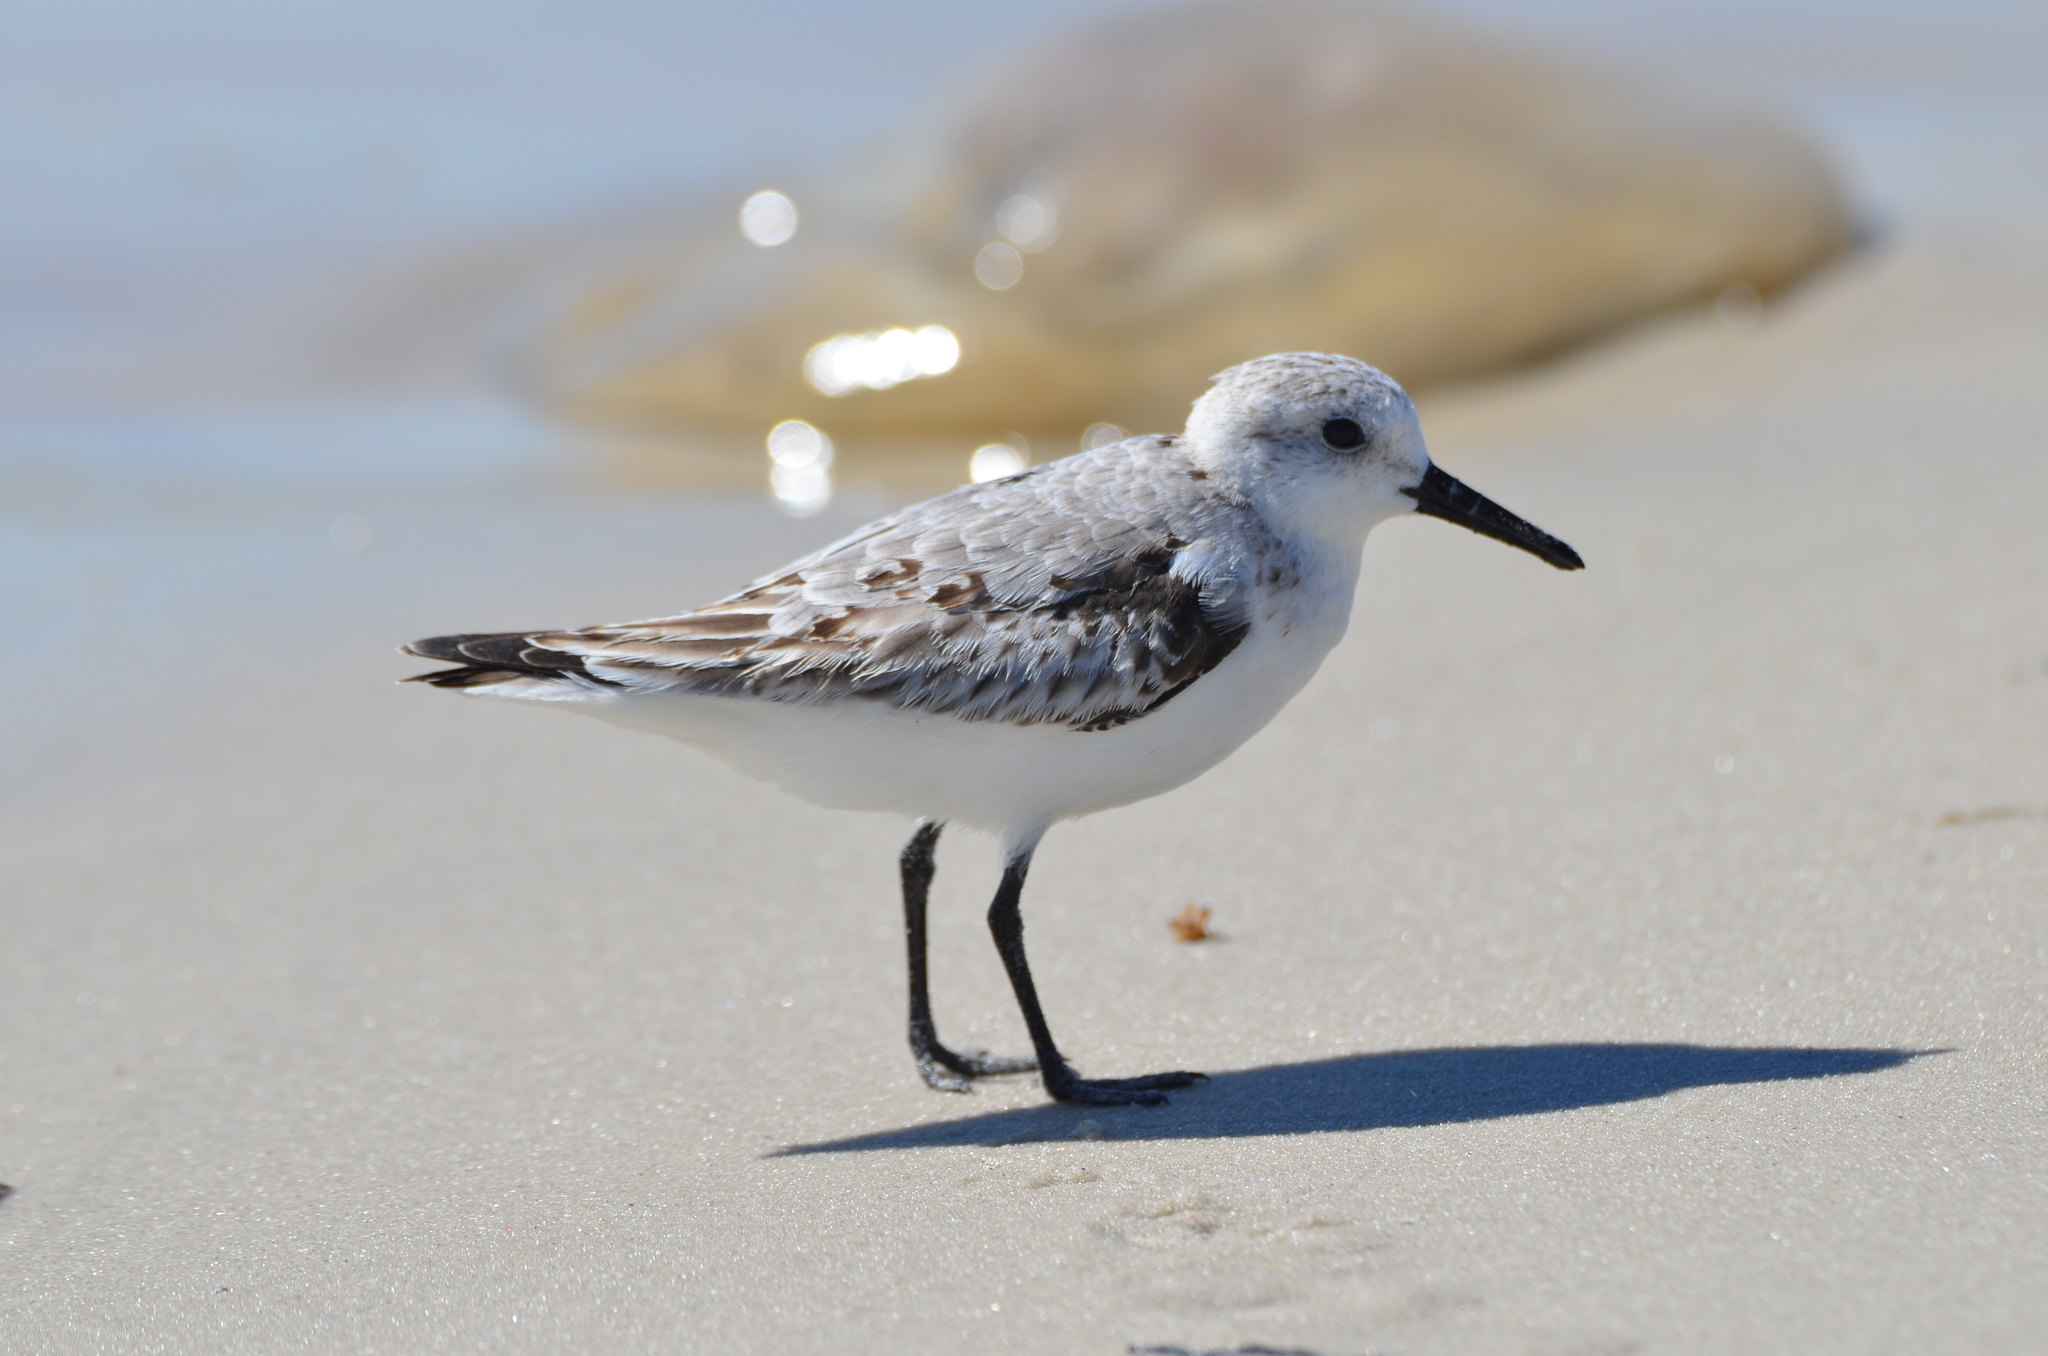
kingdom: Animalia
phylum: Chordata
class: Aves
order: Charadriiformes
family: Scolopacidae
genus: Calidris
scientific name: Calidris alba
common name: Sanderling
